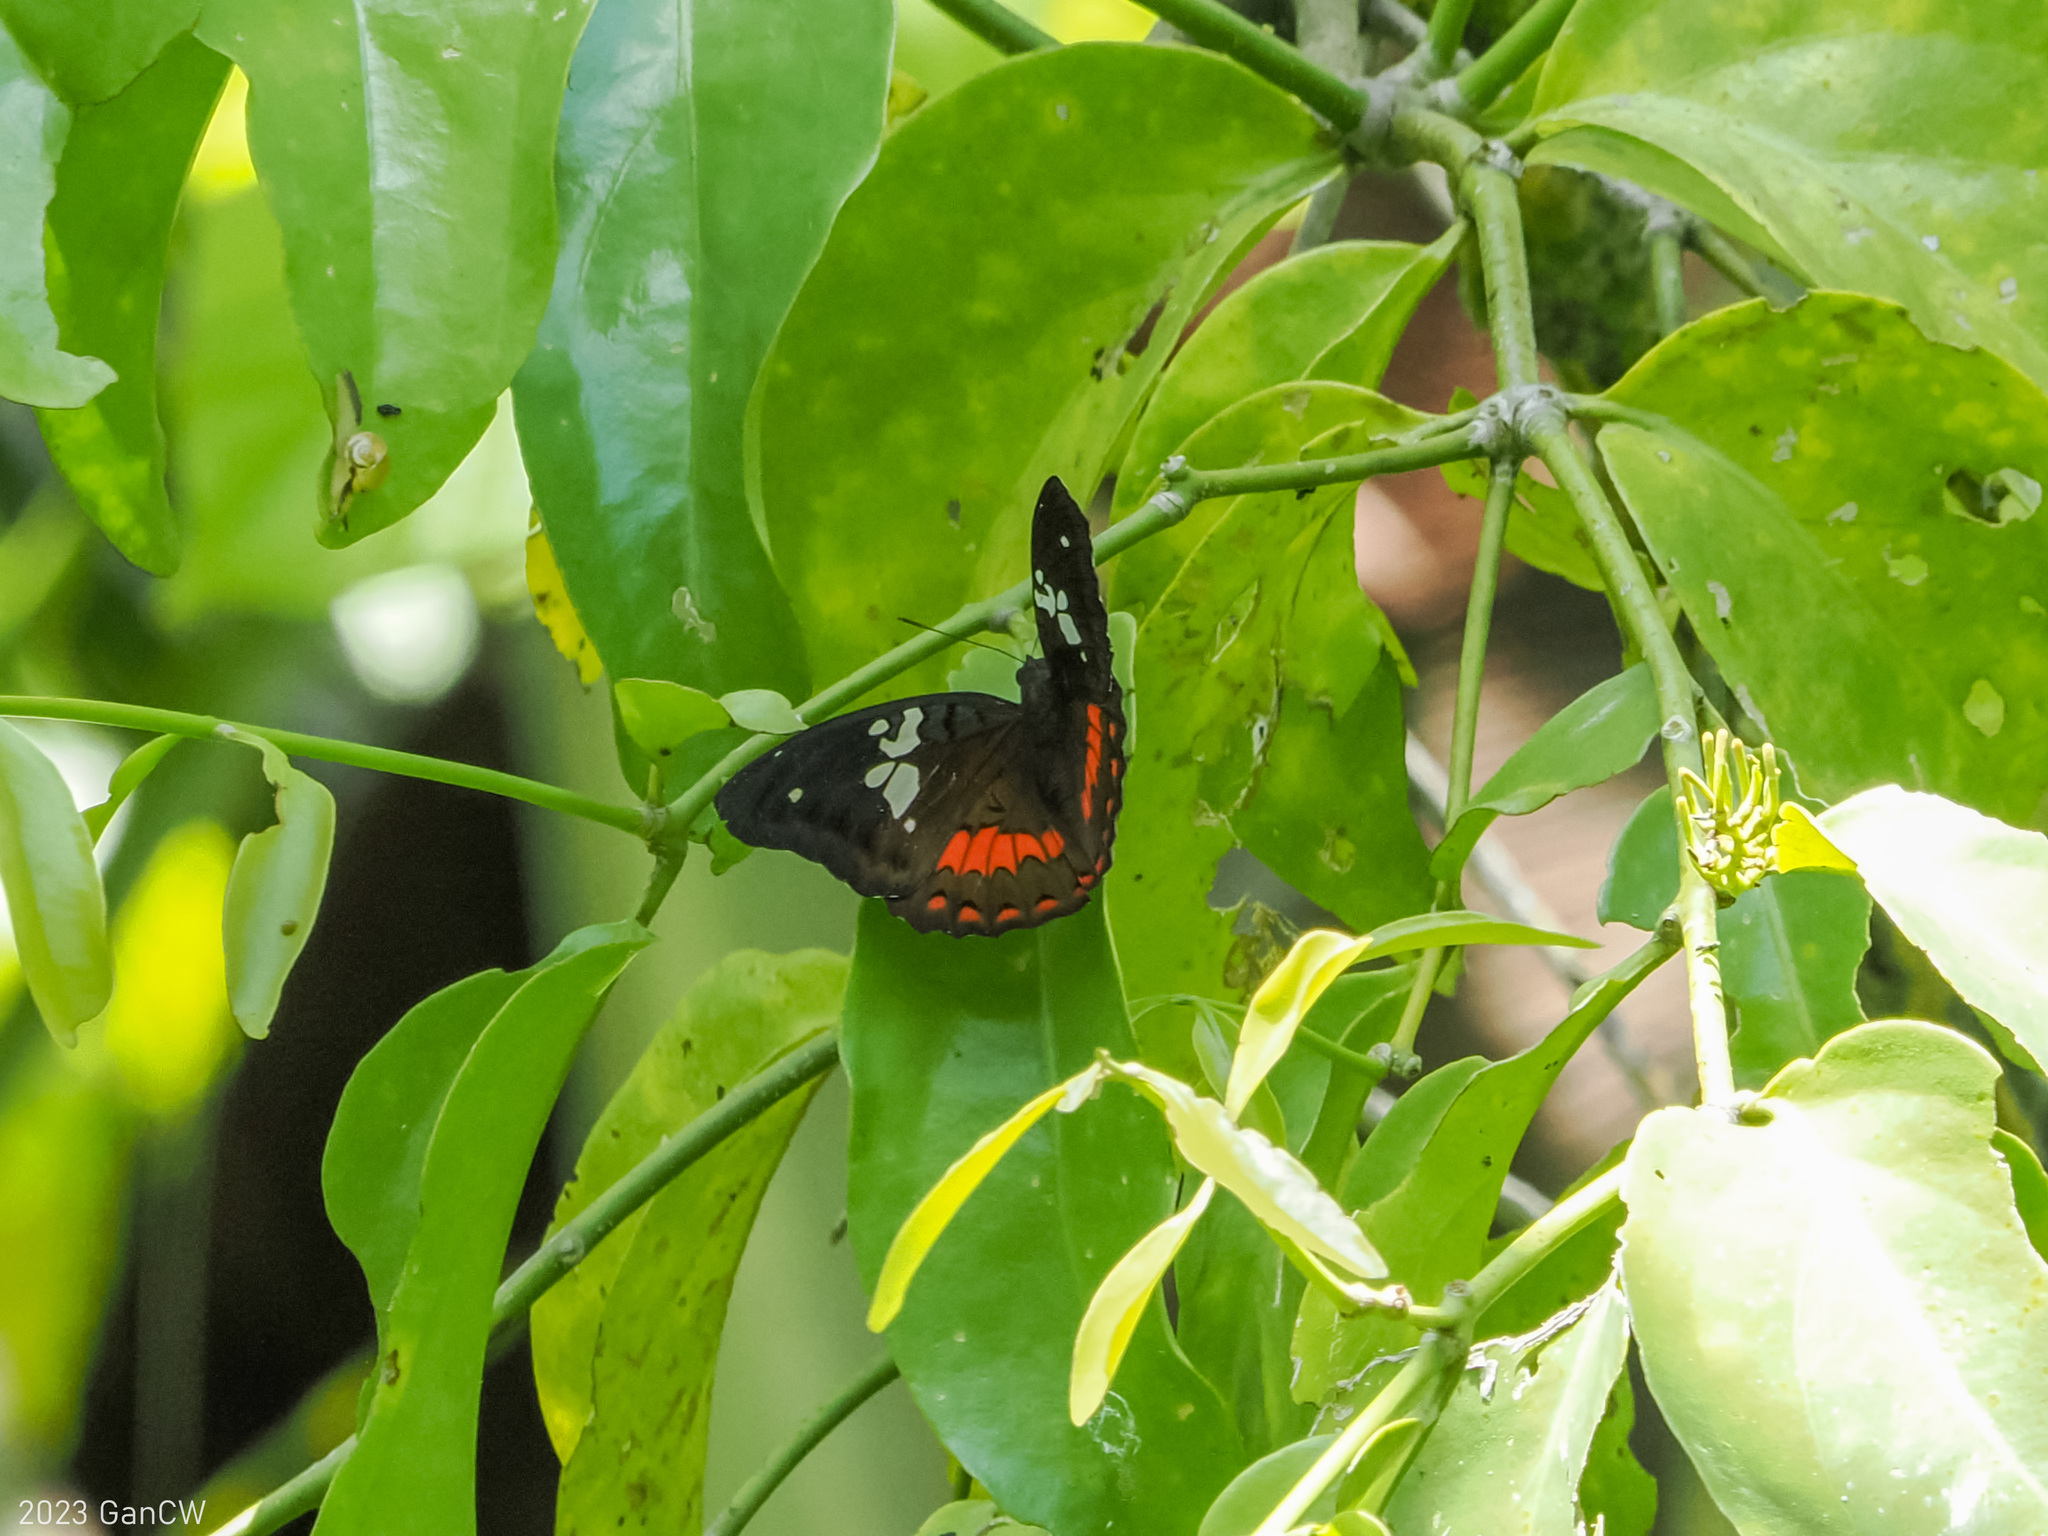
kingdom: Animalia
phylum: Arthropoda
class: Insecta
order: Lepidoptera
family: Nymphalidae
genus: Euthalia
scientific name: Euthalia amanda
